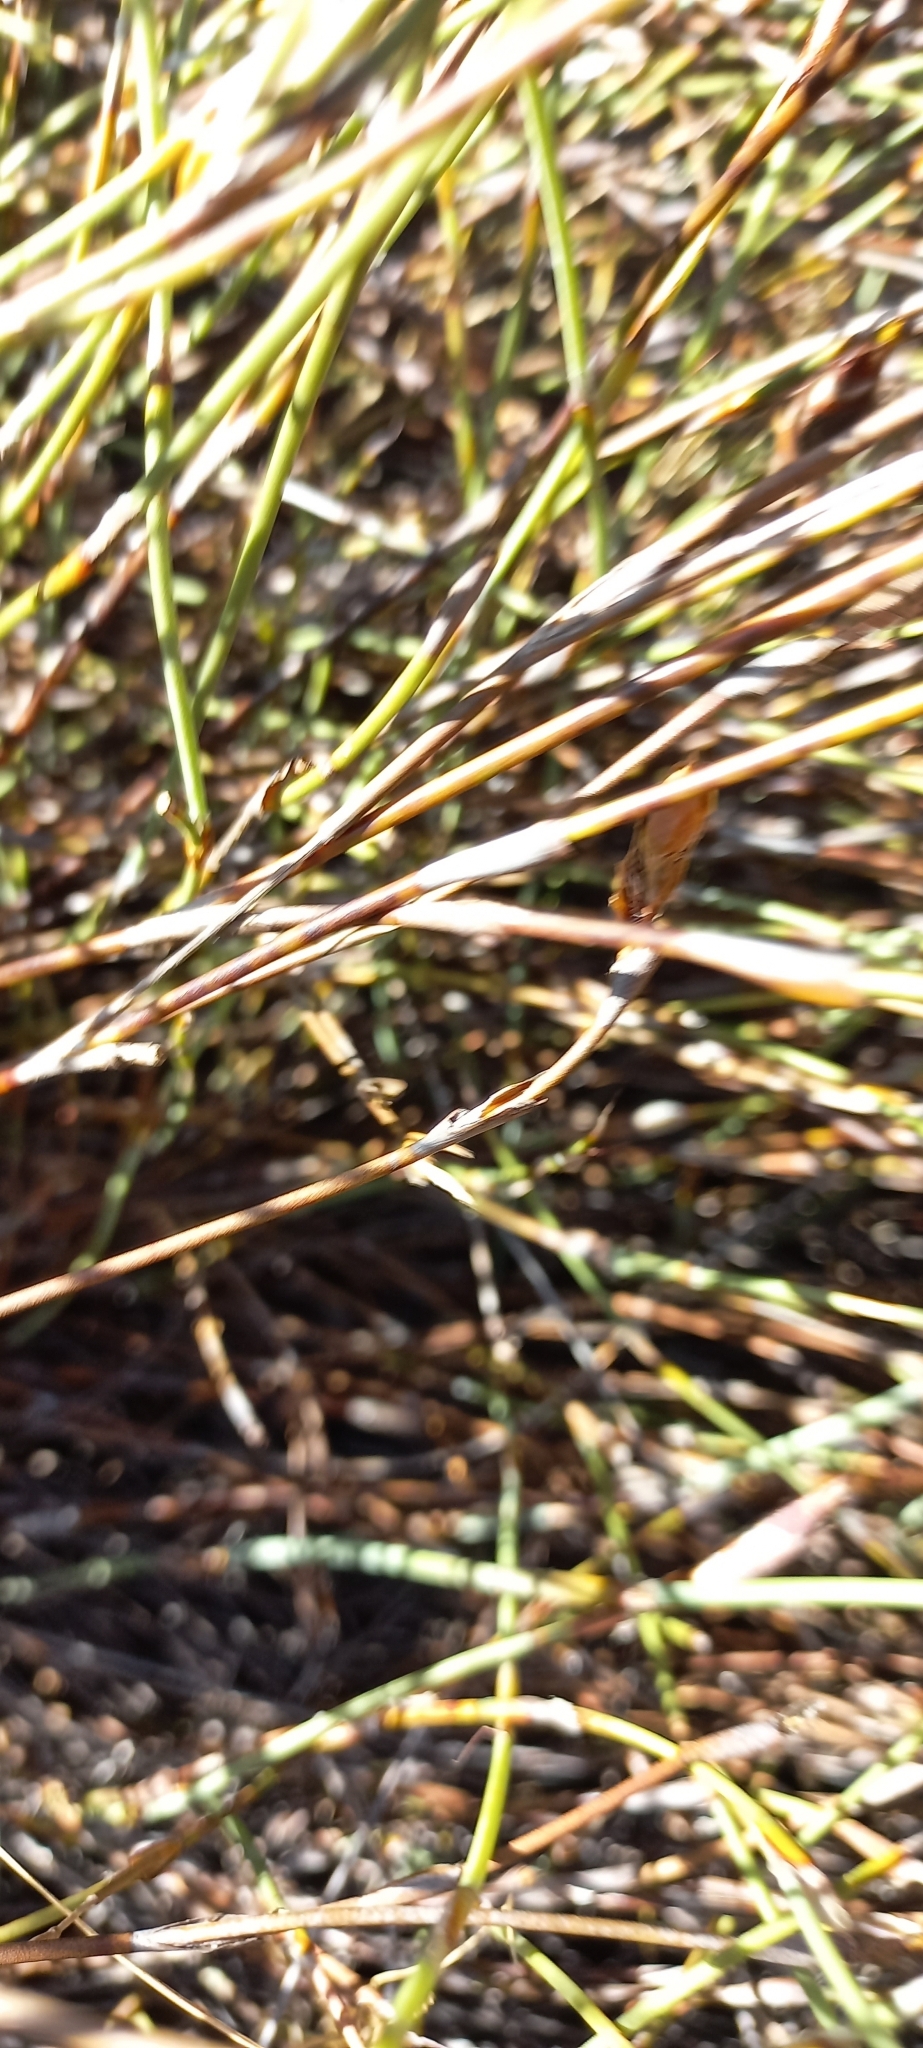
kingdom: Plantae
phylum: Tracheophyta
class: Liliopsida
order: Poales
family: Restionaceae
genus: Restio
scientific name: Restio egregius
